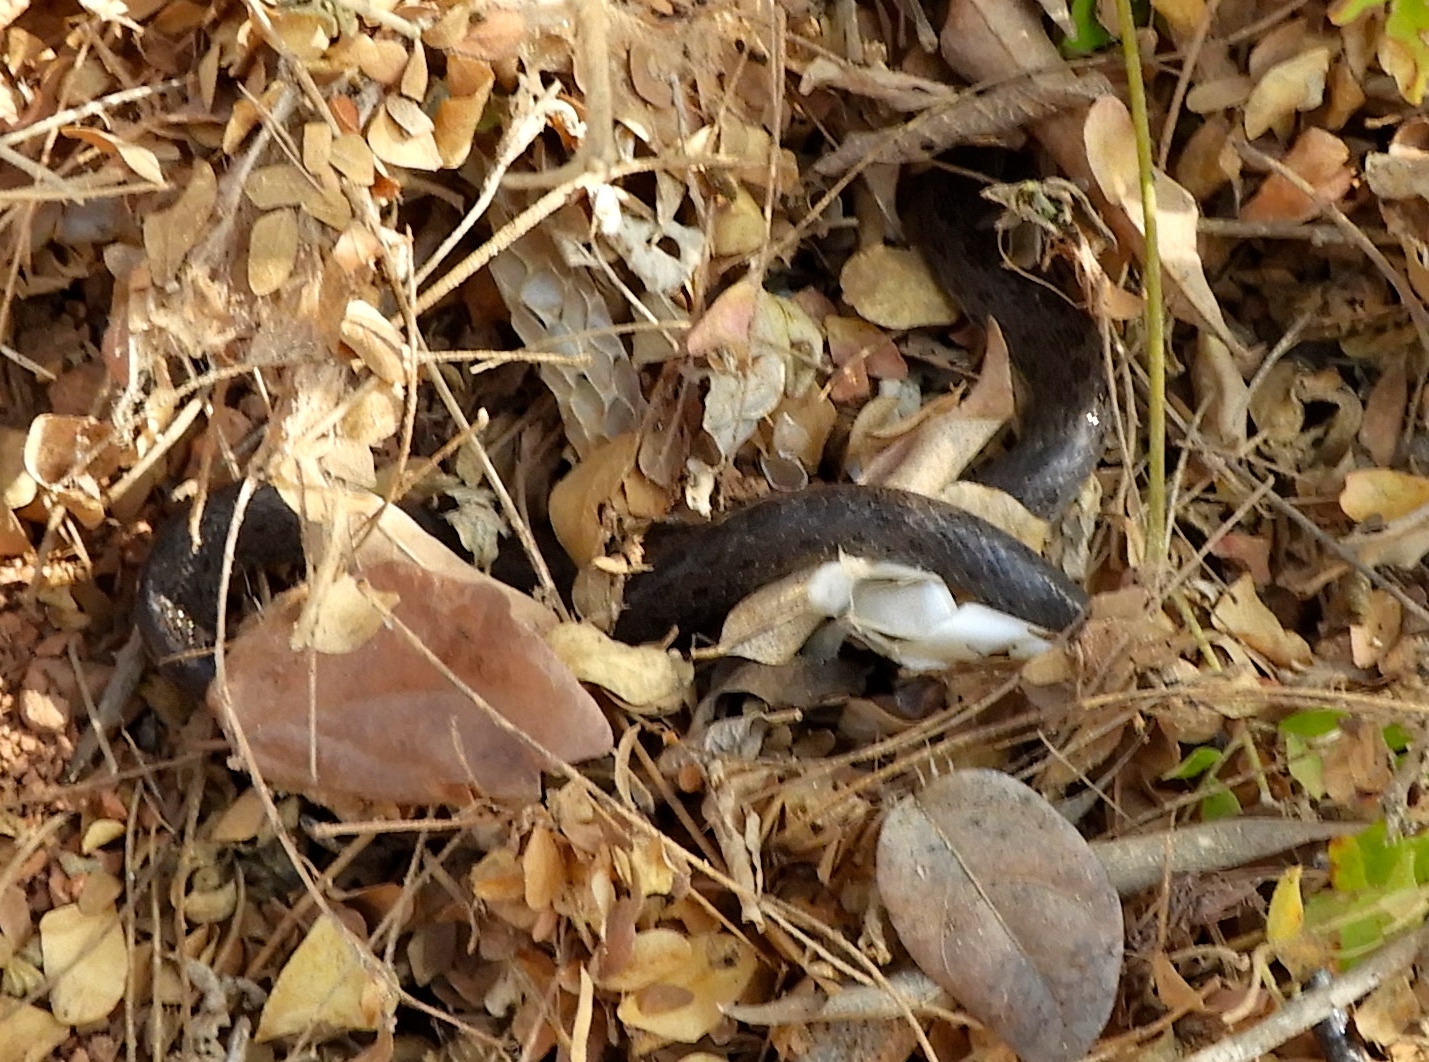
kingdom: Animalia
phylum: Chordata
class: Squamata
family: Colubridae
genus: Hypsiglena
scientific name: Hypsiglena torquata
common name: Night snake
